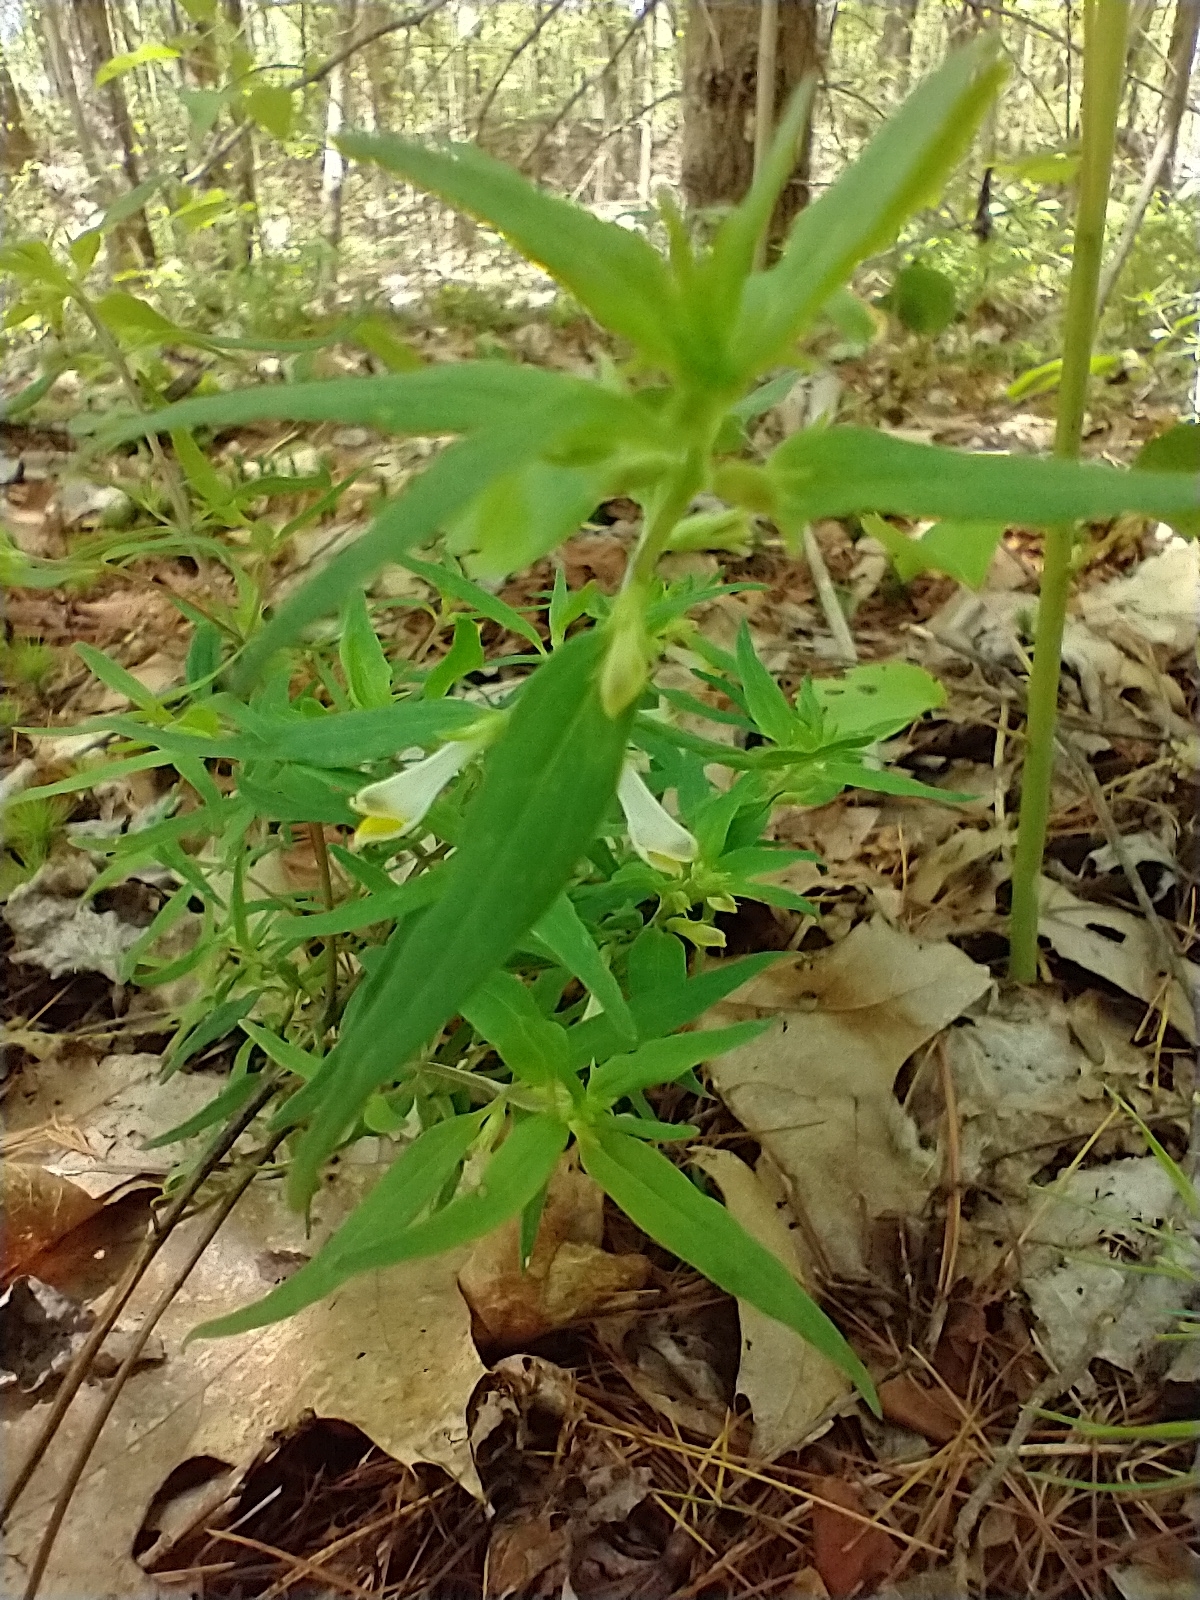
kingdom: Plantae
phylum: Tracheophyta
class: Magnoliopsida
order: Lamiales
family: Orobanchaceae
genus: Melampyrum
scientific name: Melampyrum lineare
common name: American cow-wheat
